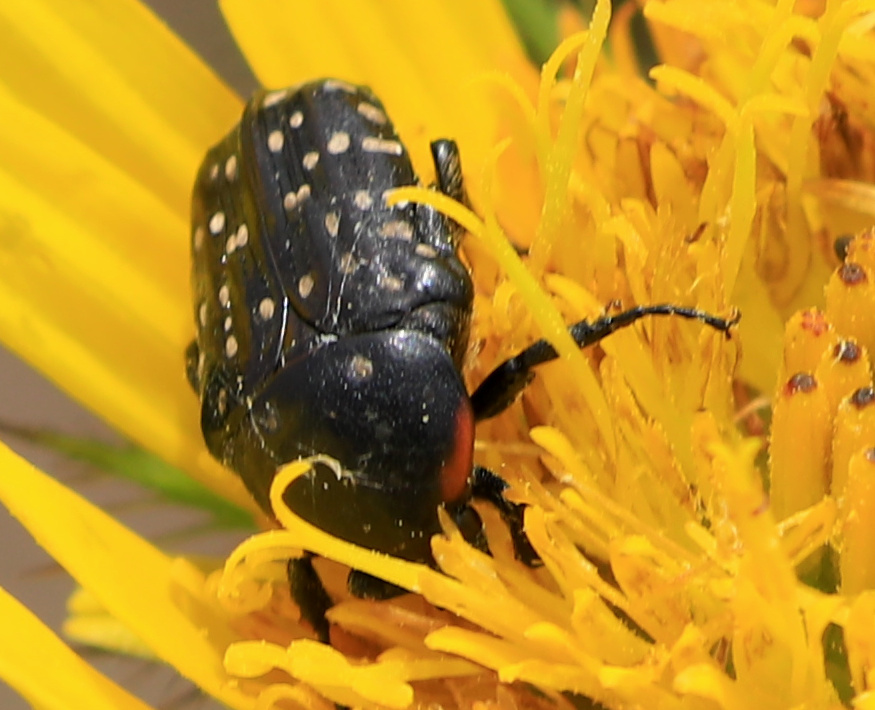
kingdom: Animalia
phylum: Arthropoda
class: Insecta
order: Coleoptera
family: Scarabaeidae
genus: Oxythyrea
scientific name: Oxythyrea
